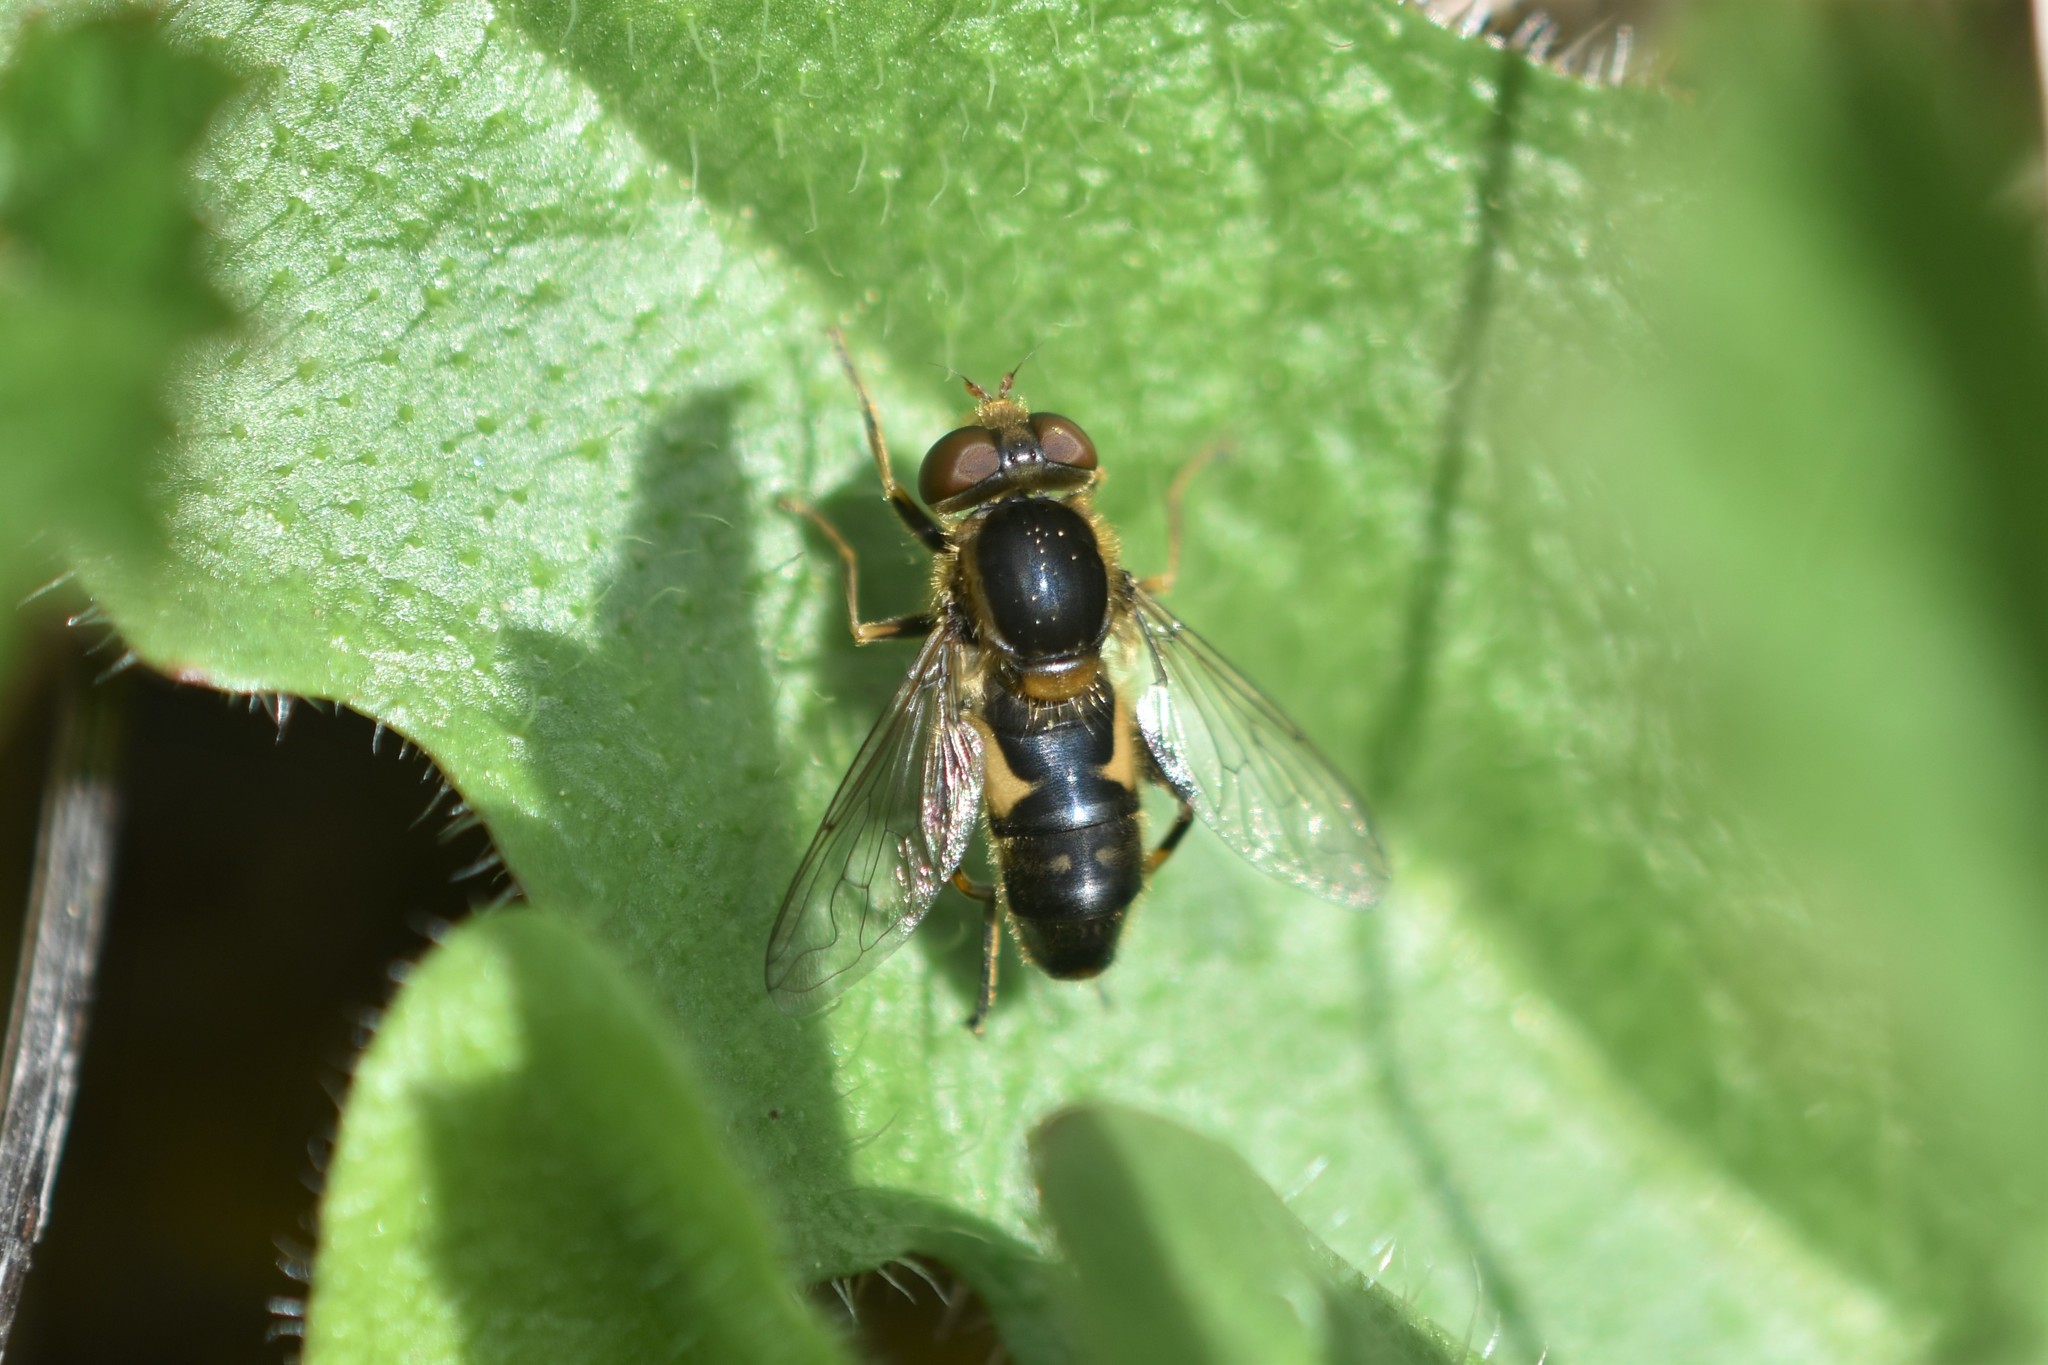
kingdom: Animalia
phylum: Arthropoda
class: Insecta
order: Diptera
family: Syrphidae
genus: Anasimyia
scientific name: Anasimyia bilinearis
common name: Two-lined swamp fly
